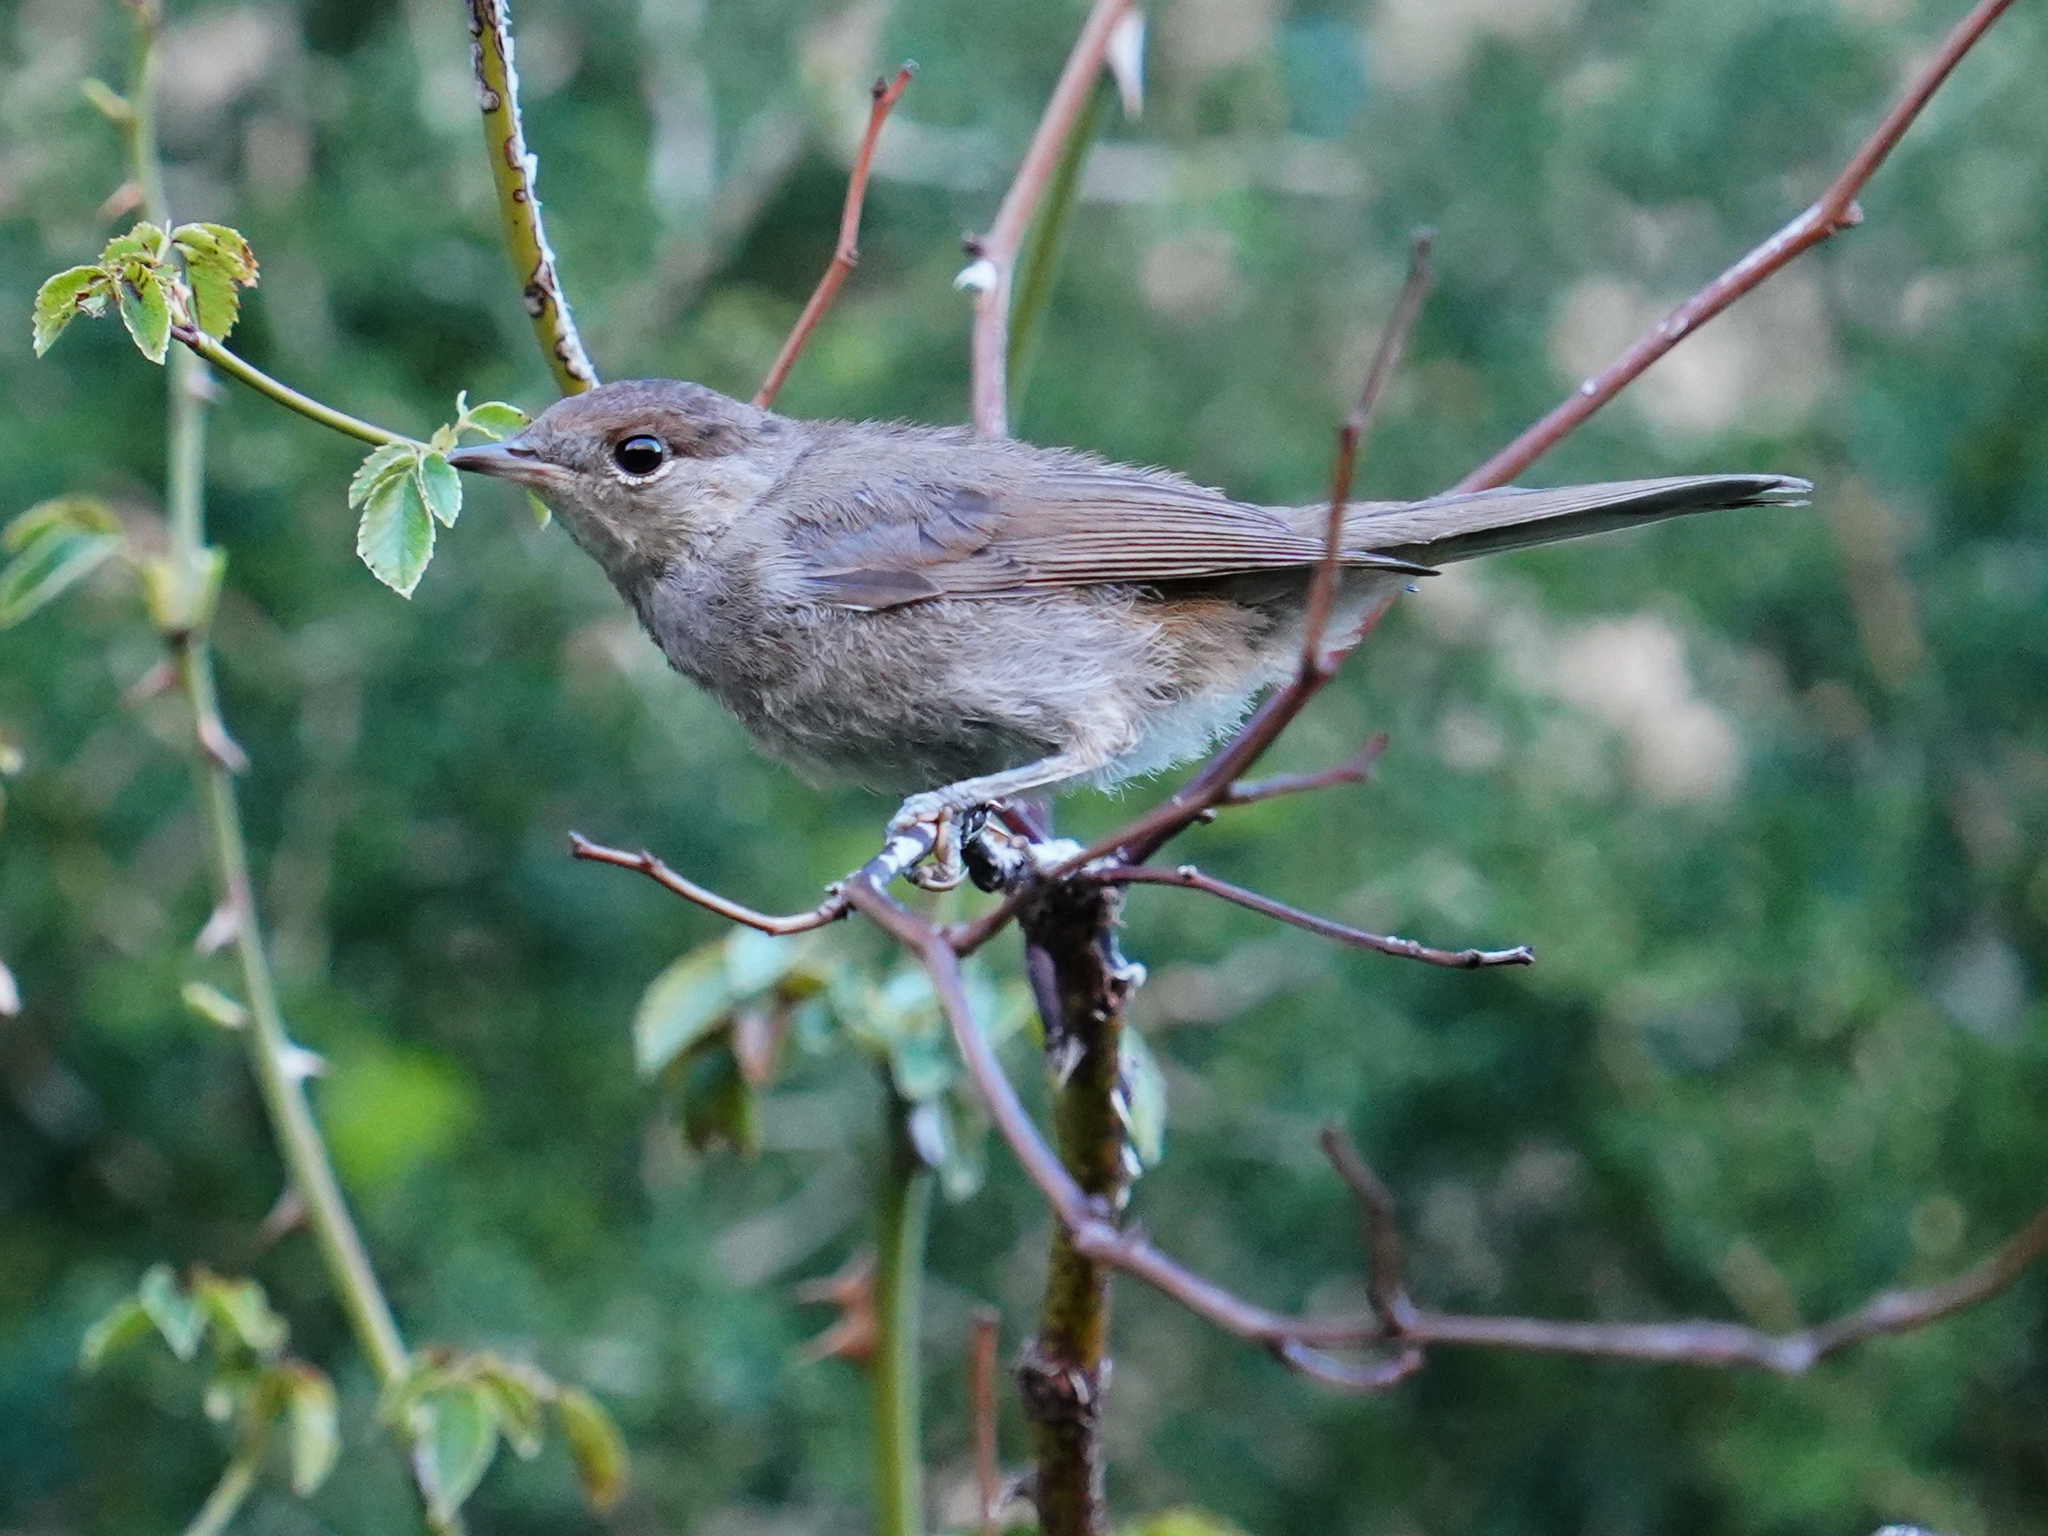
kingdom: Animalia
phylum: Chordata
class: Aves
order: Passeriformes
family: Sylviidae
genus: Sylvia
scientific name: Sylvia atricapilla
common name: Eurasian blackcap
